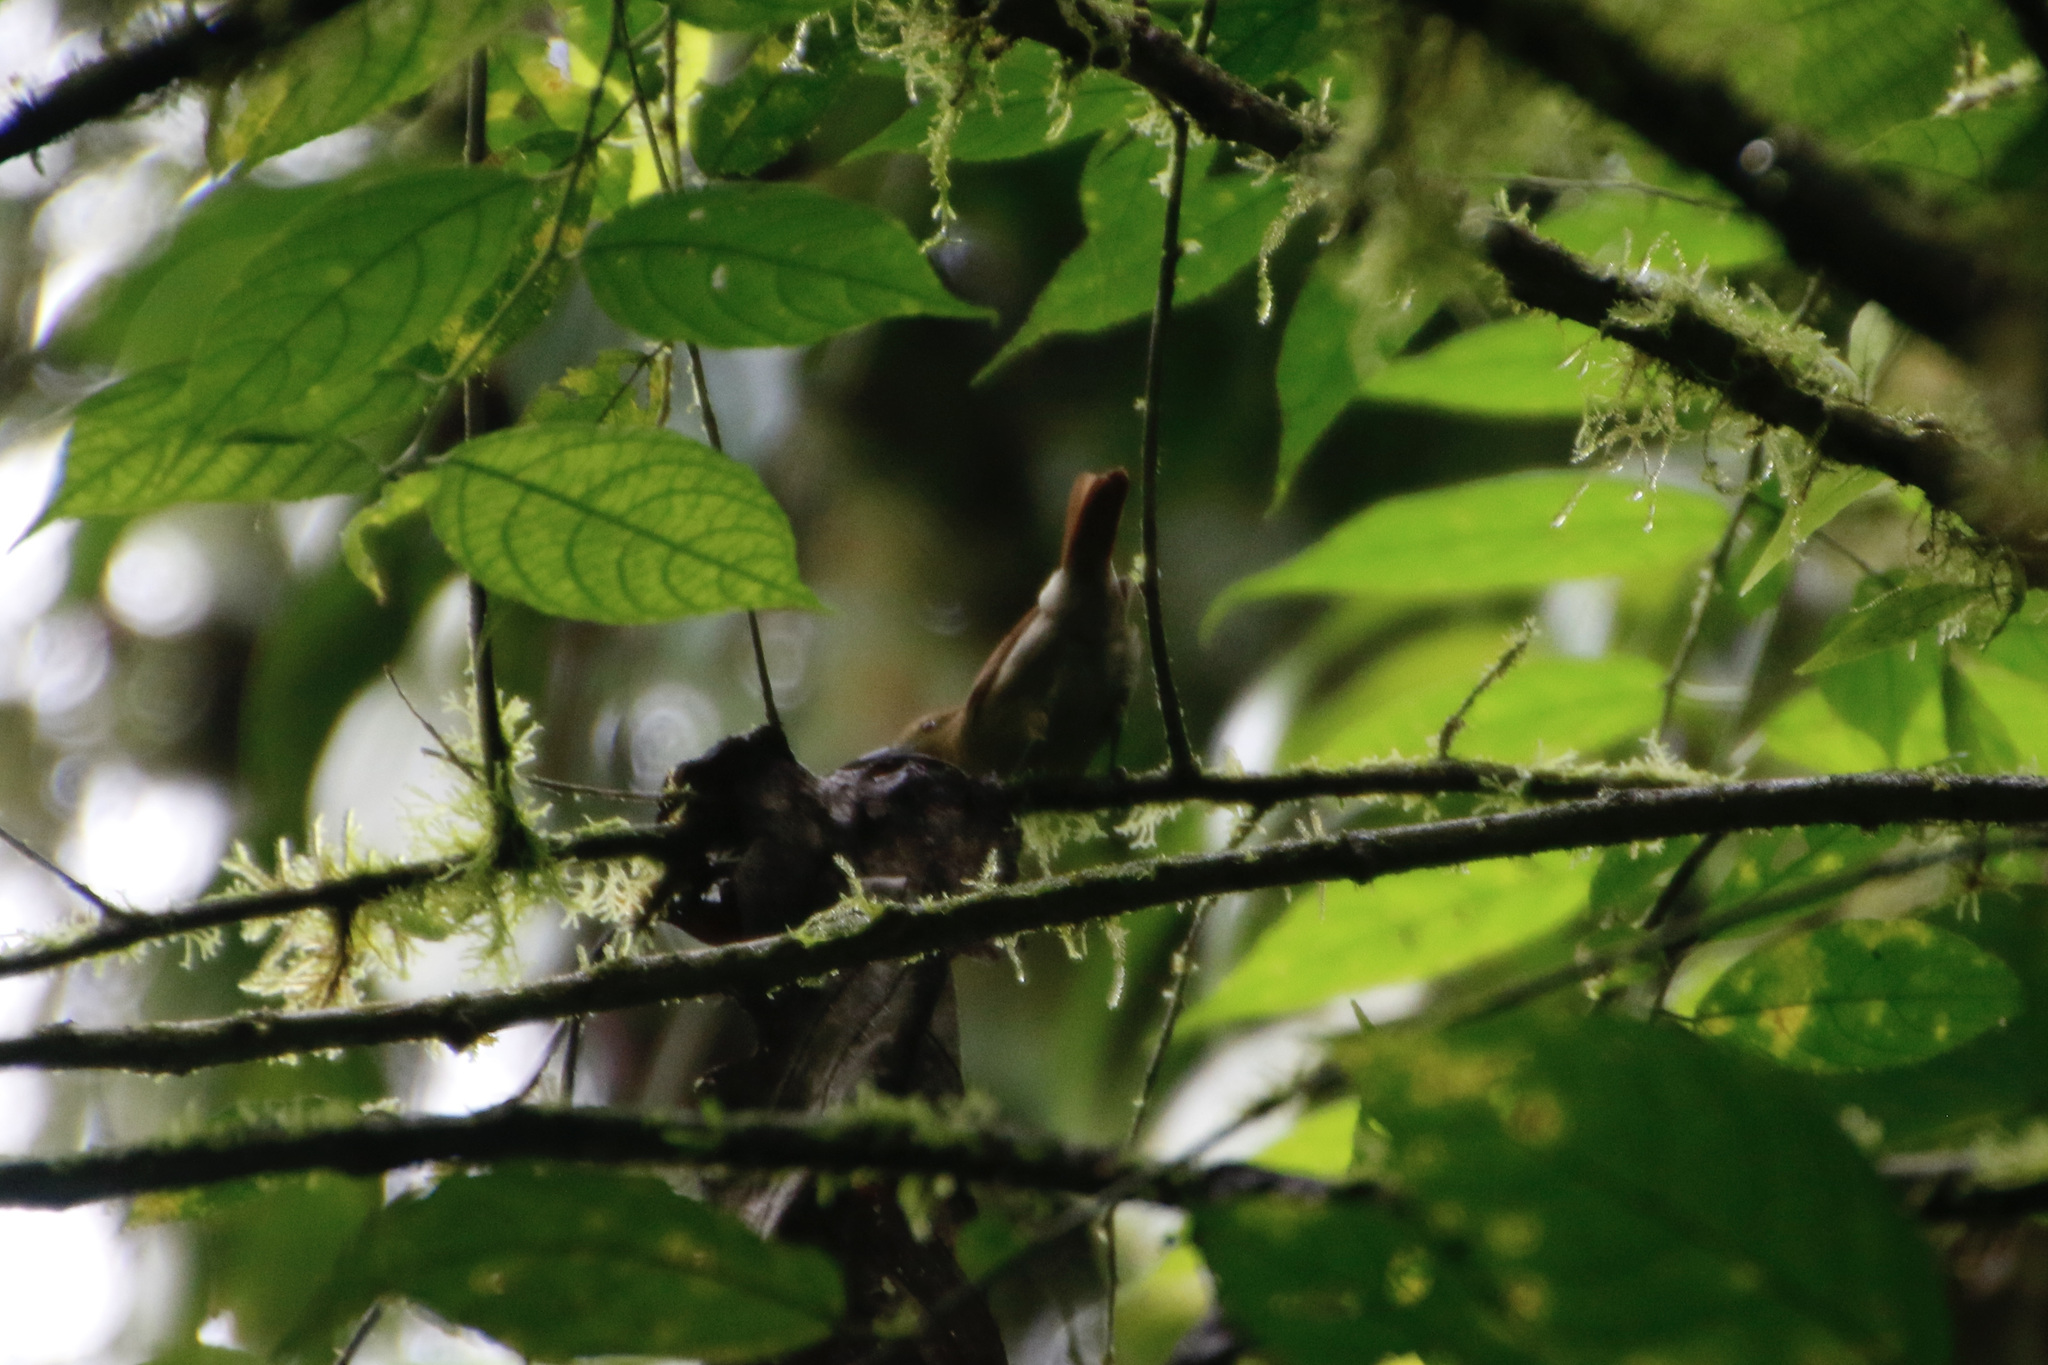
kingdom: Animalia
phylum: Chordata
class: Aves
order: Passeriformes
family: Thamnophilidae
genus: Thamnistes
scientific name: Thamnistes anabatinus
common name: Russet antshrike
